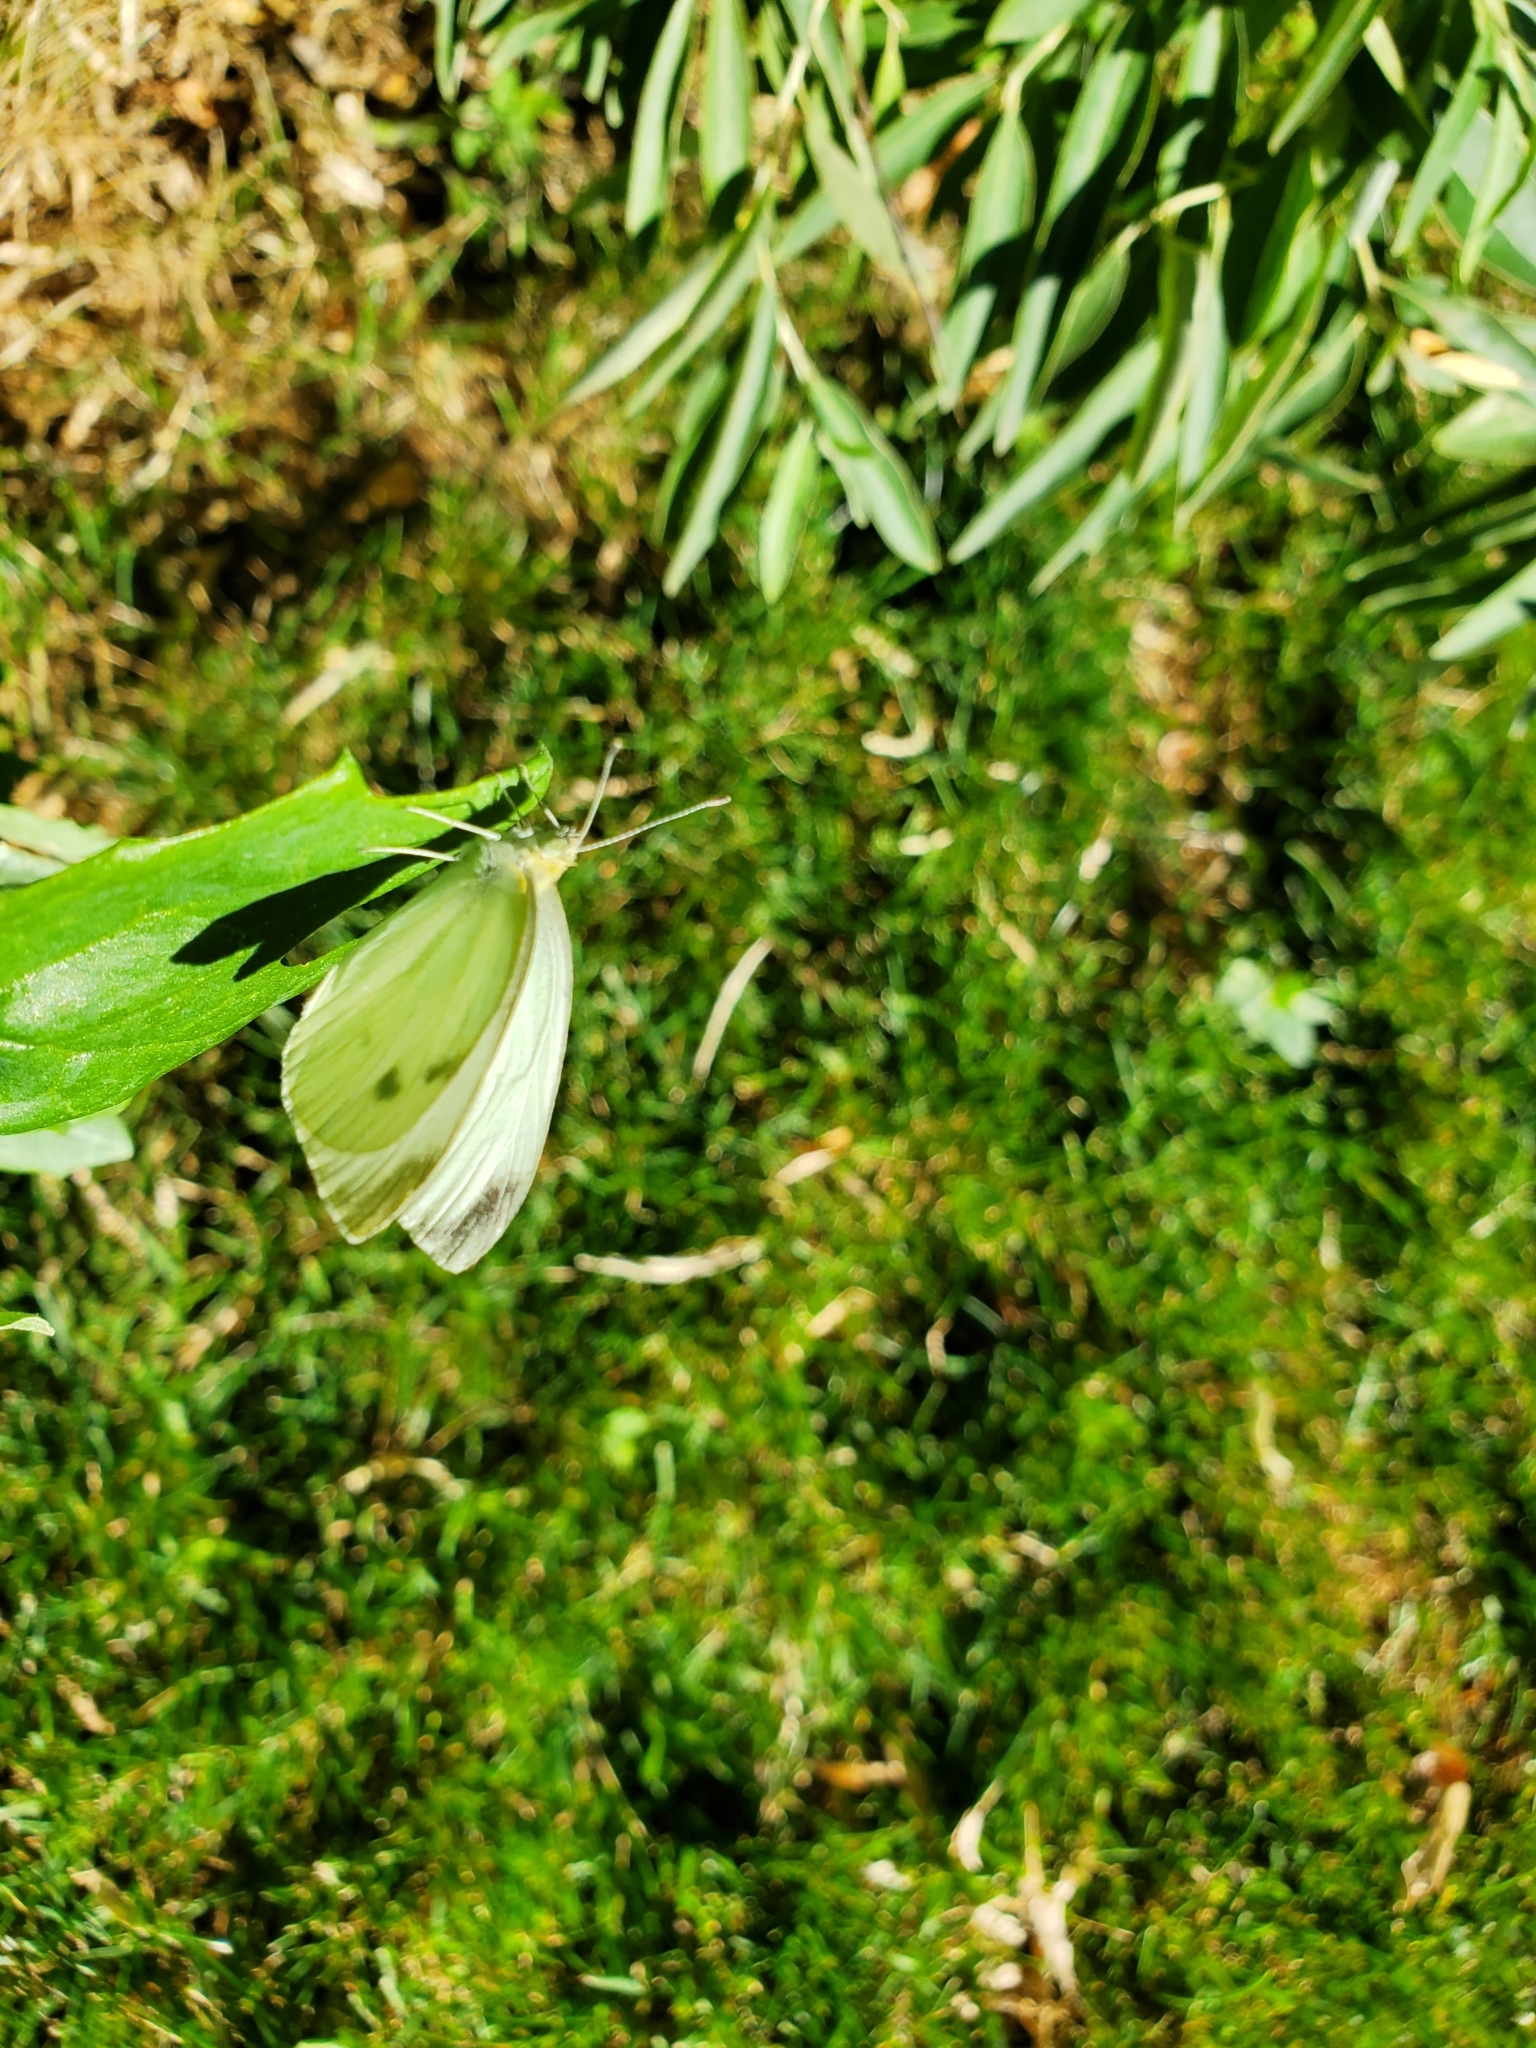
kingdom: Animalia
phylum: Arthropoda
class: Insecta
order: Lepidoptera
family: Pieridae
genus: Pieris
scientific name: Pieris rapae
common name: Small white
